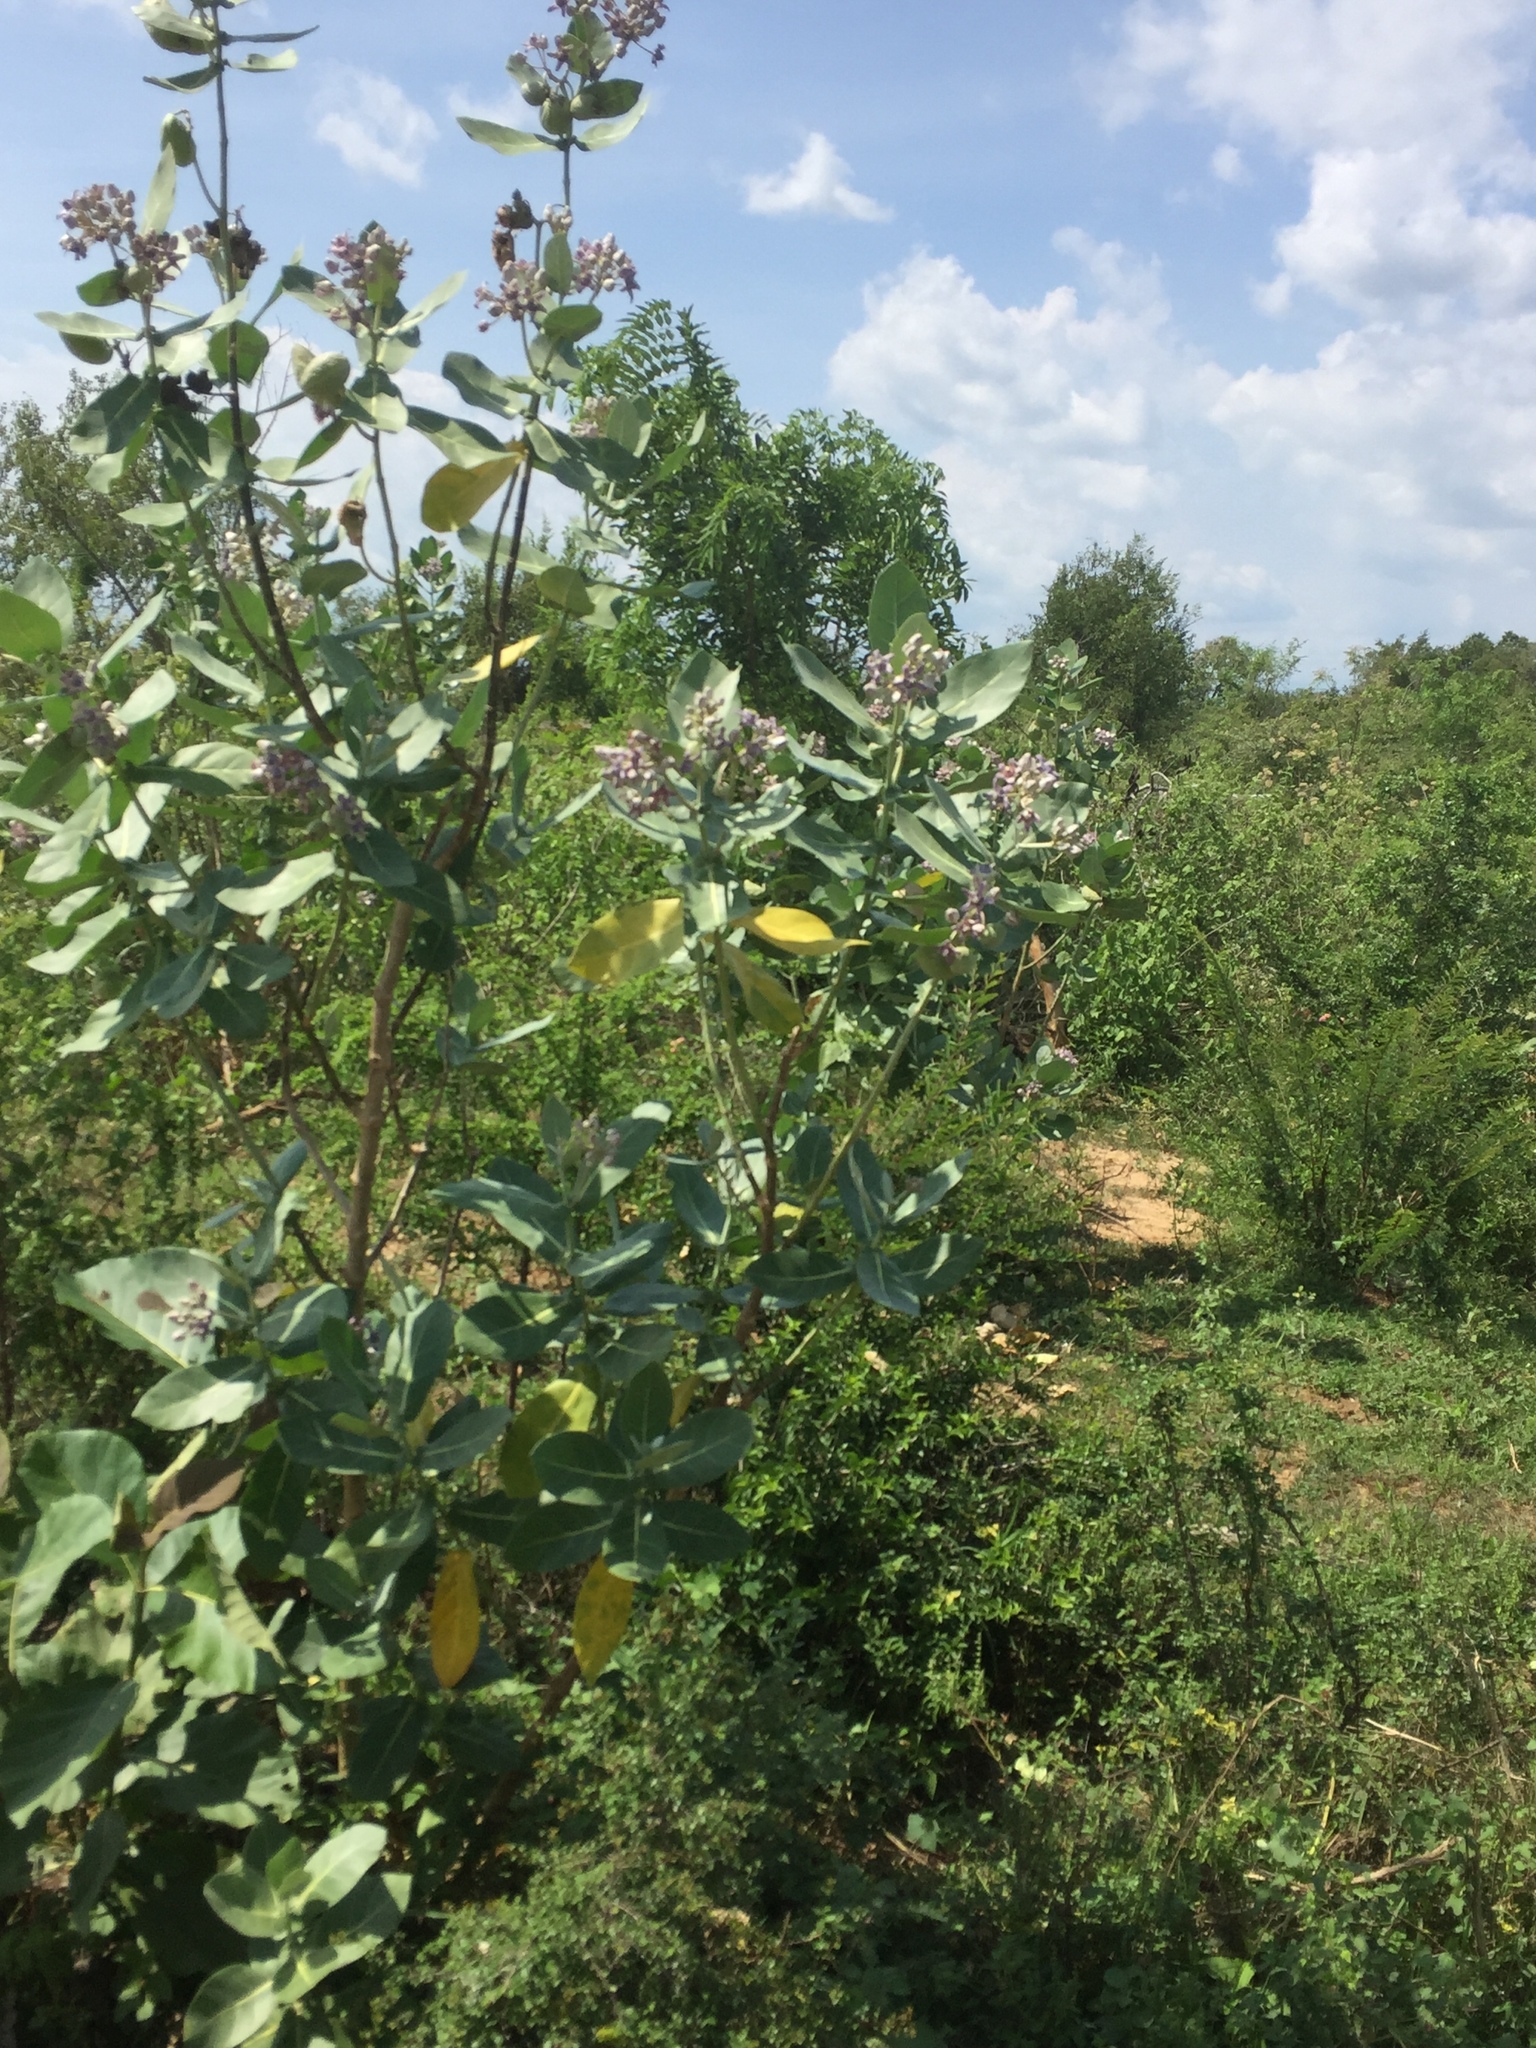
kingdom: Plantae
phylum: Tracheophyta
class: Magnoliopsida
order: Gentianales
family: Apocynaceae
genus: Calotropis
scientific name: Calotropis gigantea
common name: Crown flower
